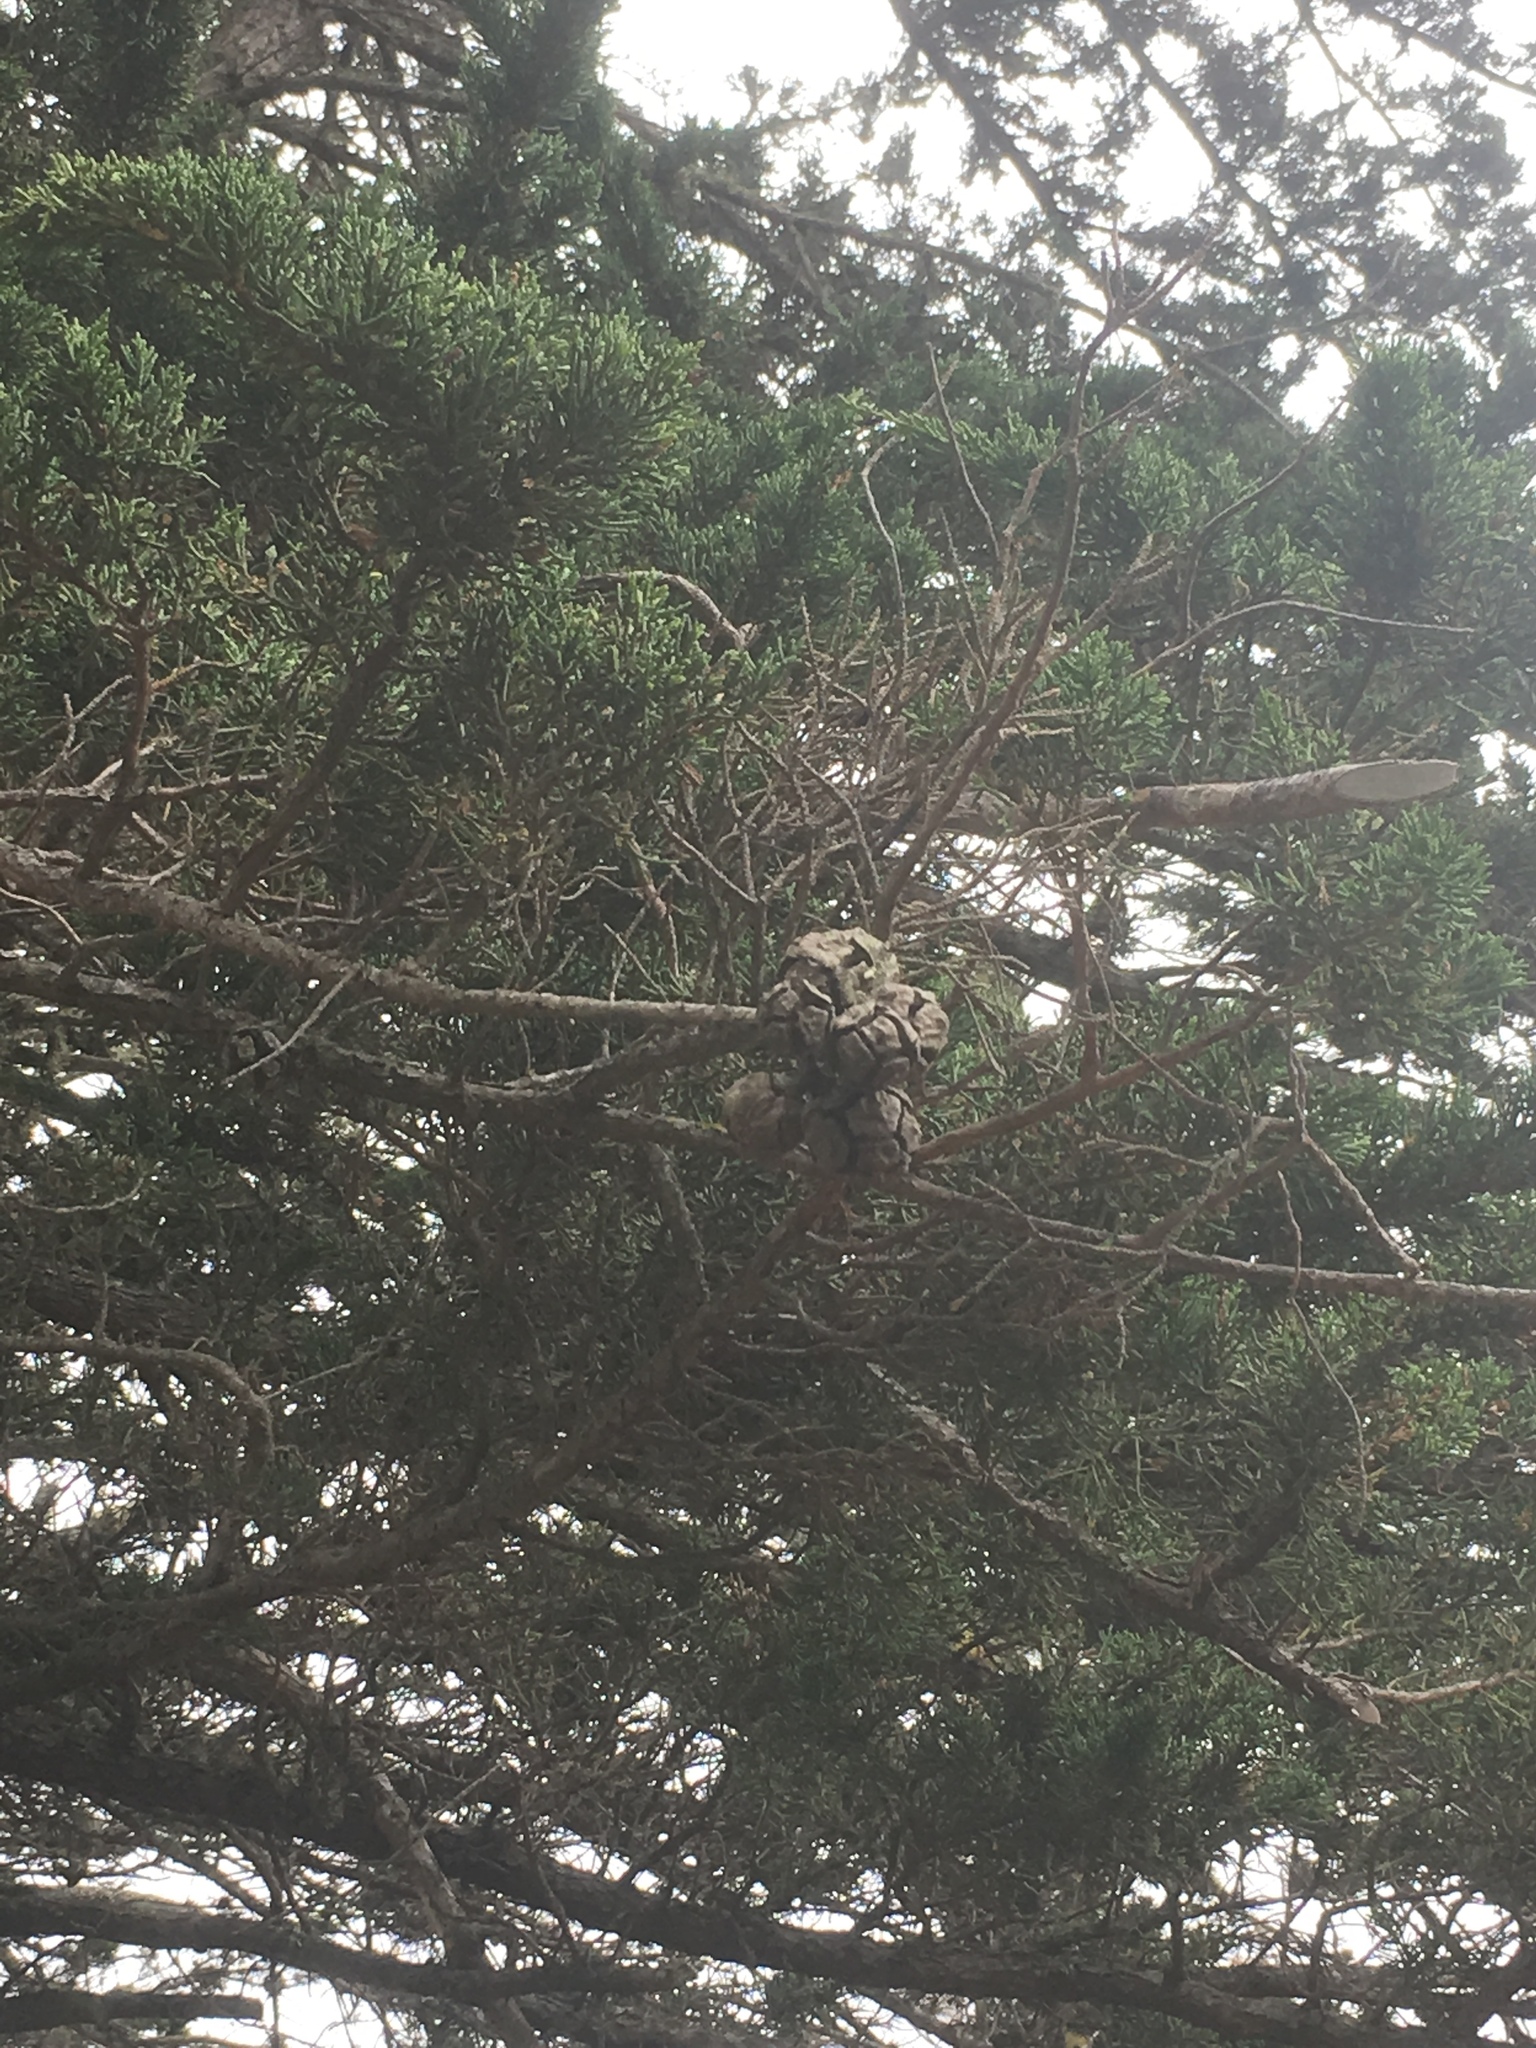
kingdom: Plantae
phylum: Tracheophyta
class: Pinopsida
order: Pinales
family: Cupressaceae
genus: Cupressus
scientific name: Cupressus macrocarpa
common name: Monterey cypress
